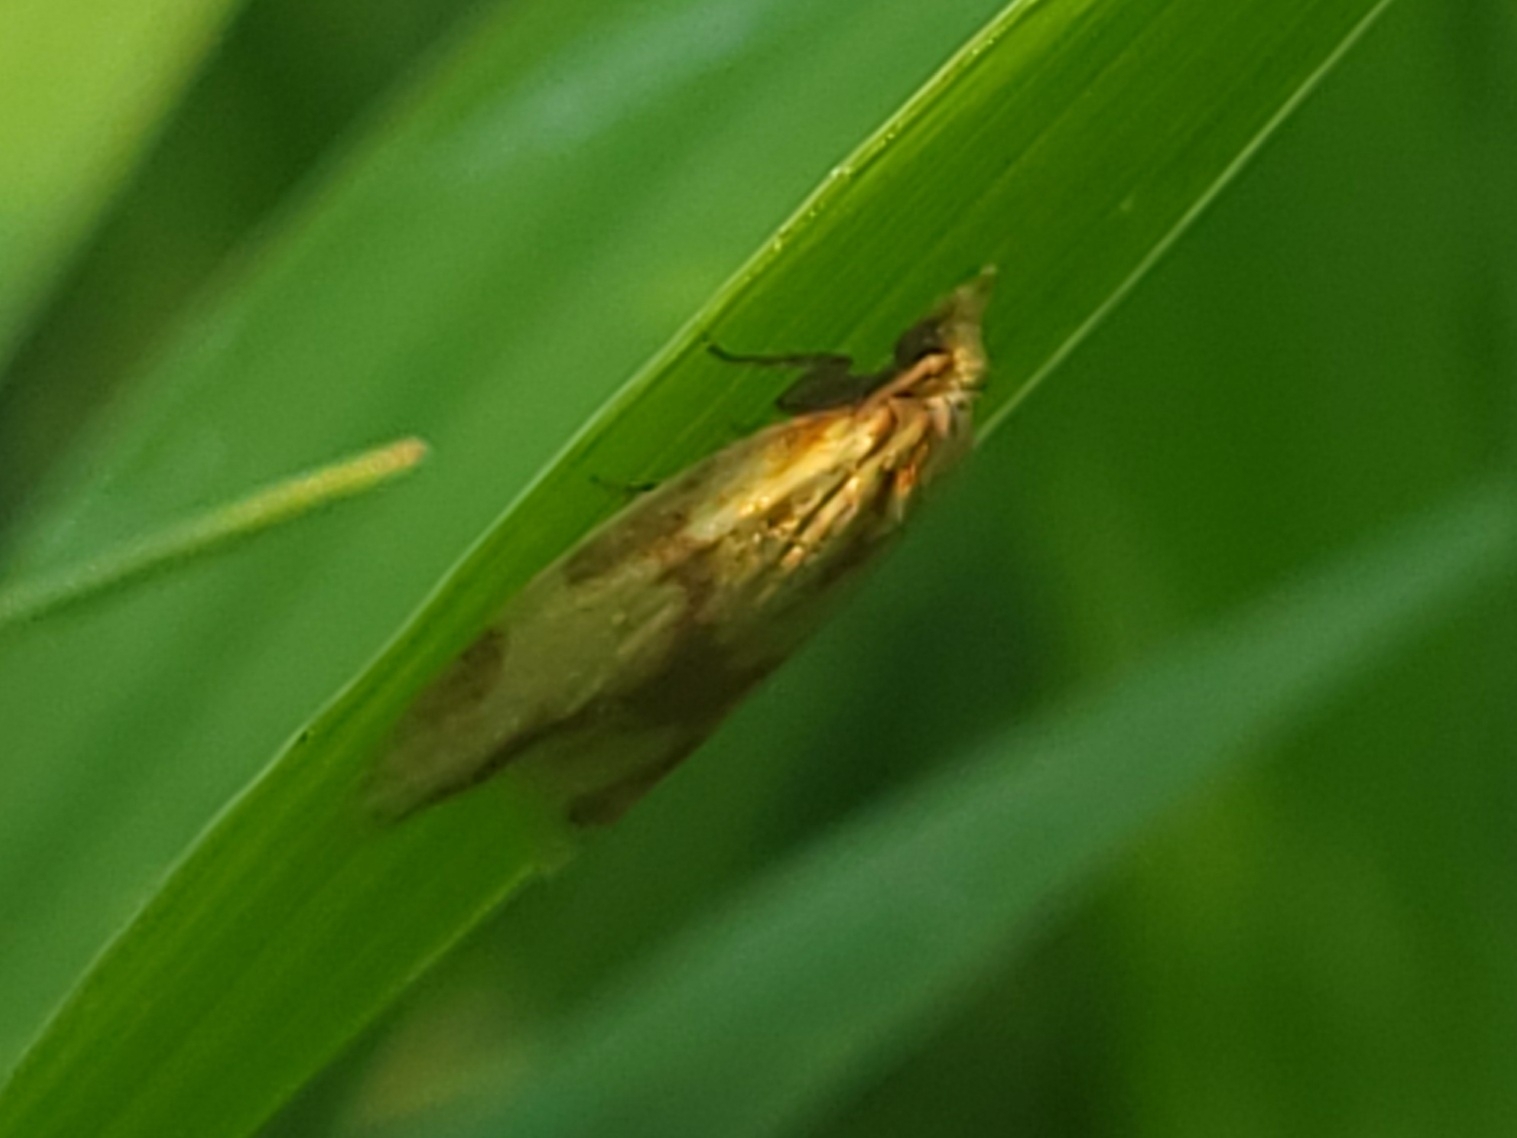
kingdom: Animalia
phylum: Arthropoda
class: Insecta
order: Lepidoptera
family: Tortricidae
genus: Sparganothis
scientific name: Sparganothis sulfureana
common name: Sparganothis fruitworm moth
